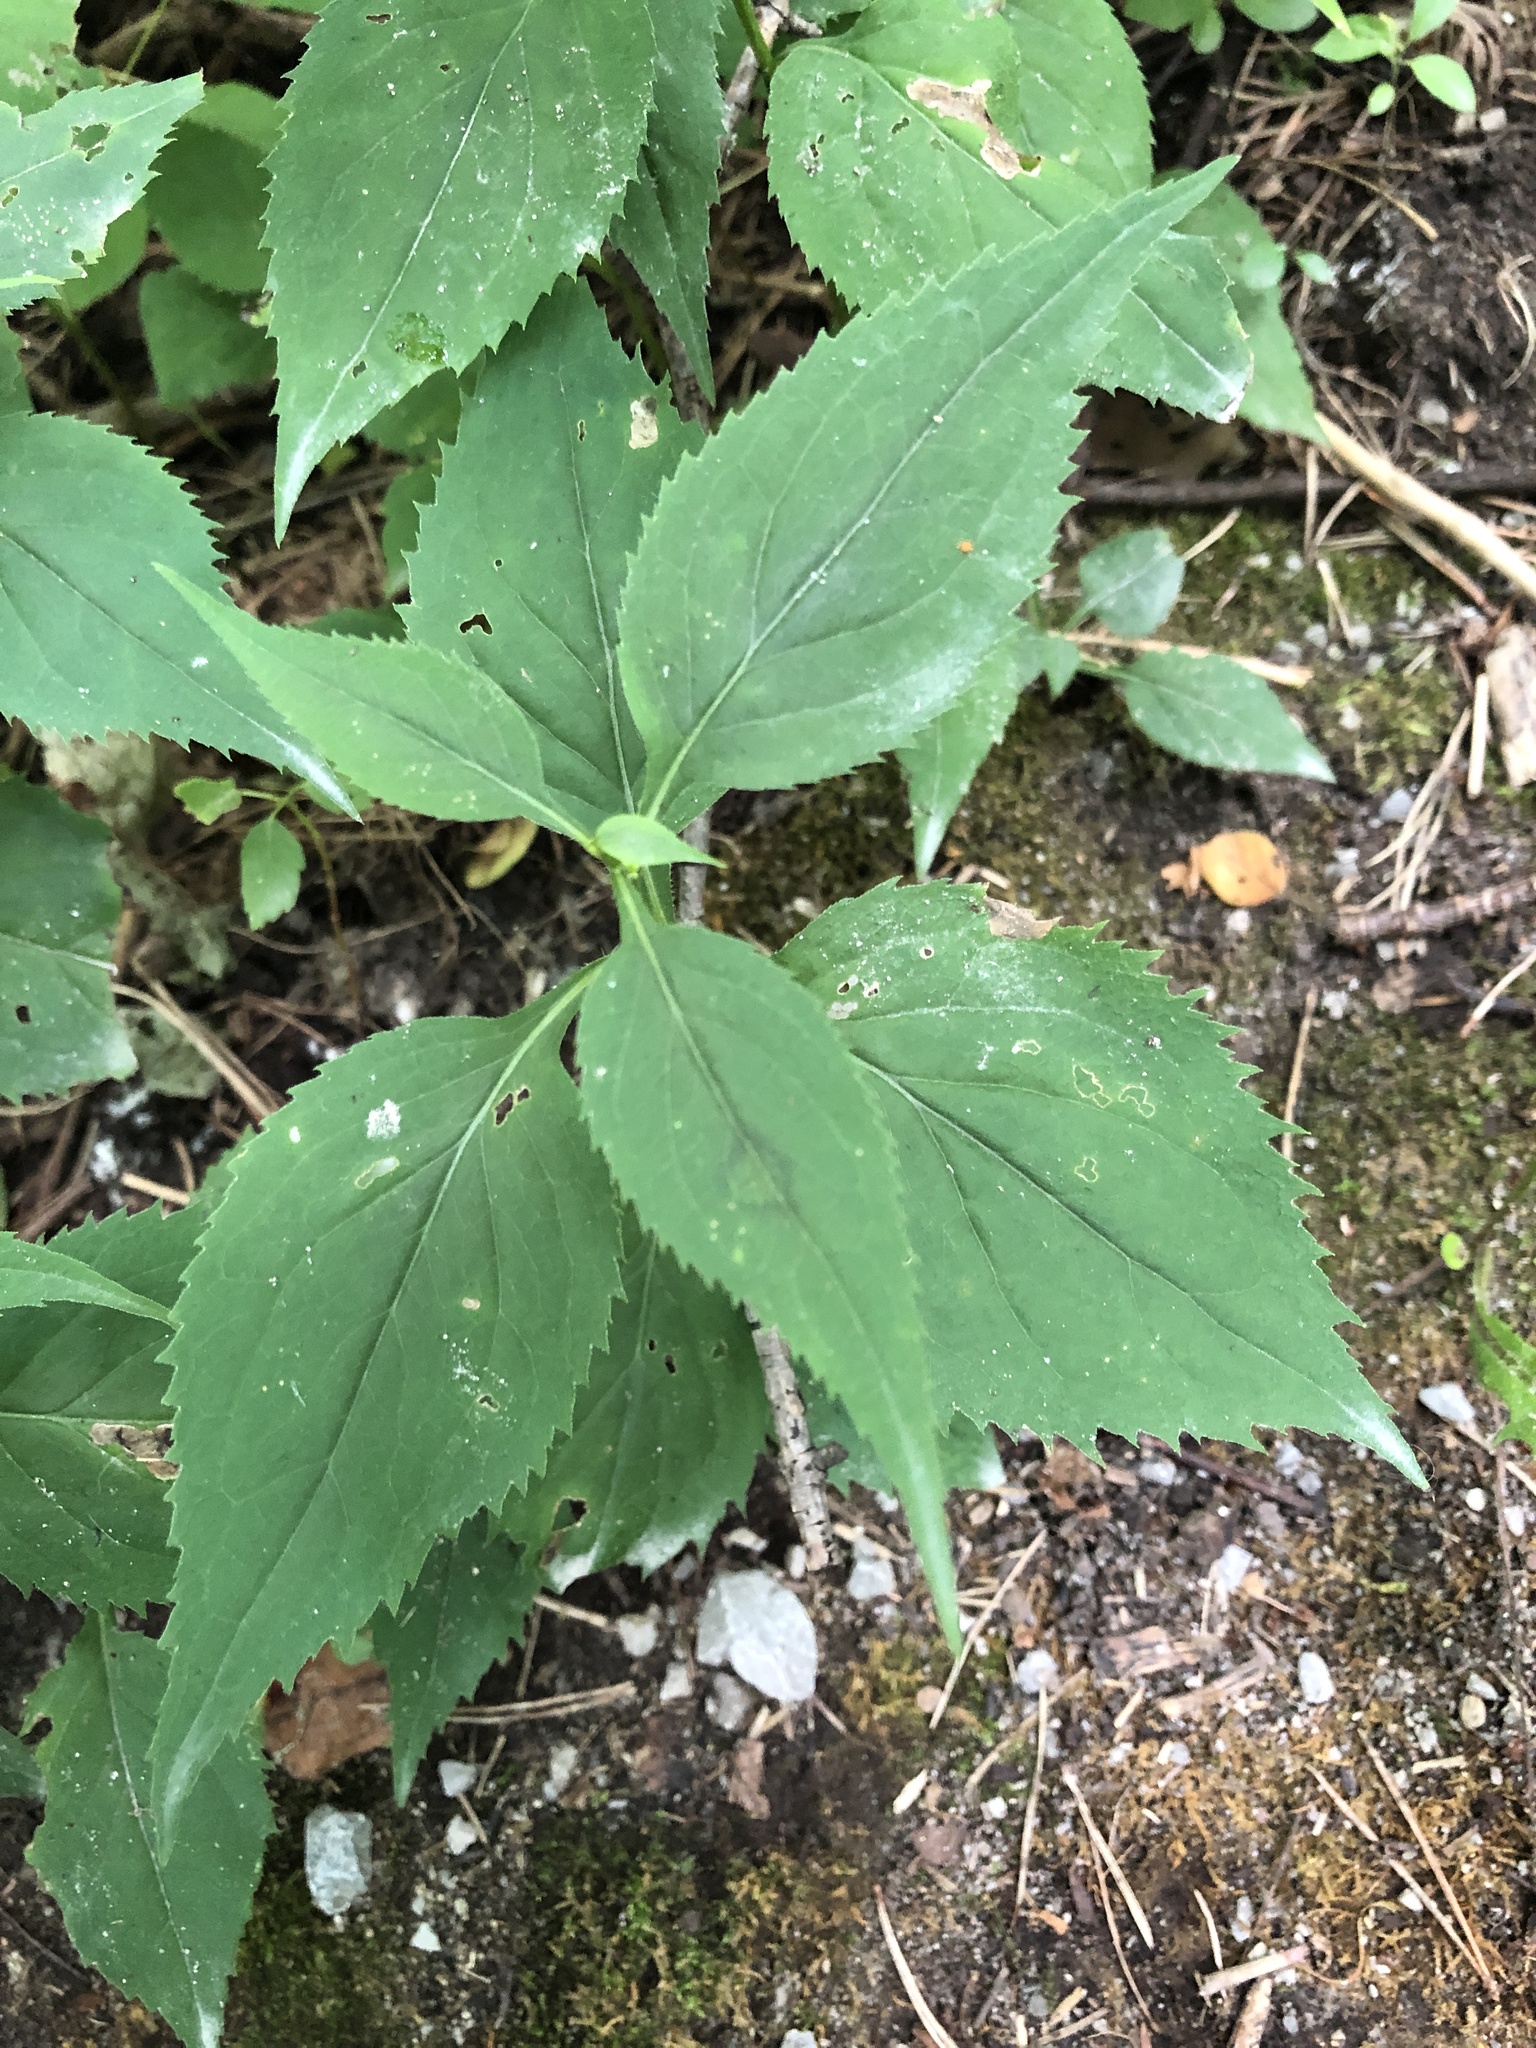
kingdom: Plantae
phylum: Tracheophyta
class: Magnoliopsida
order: Asterales
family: Asteraceae
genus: Solidago
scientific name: Solidago flexicaulis
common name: Zig-zag goldenrod
